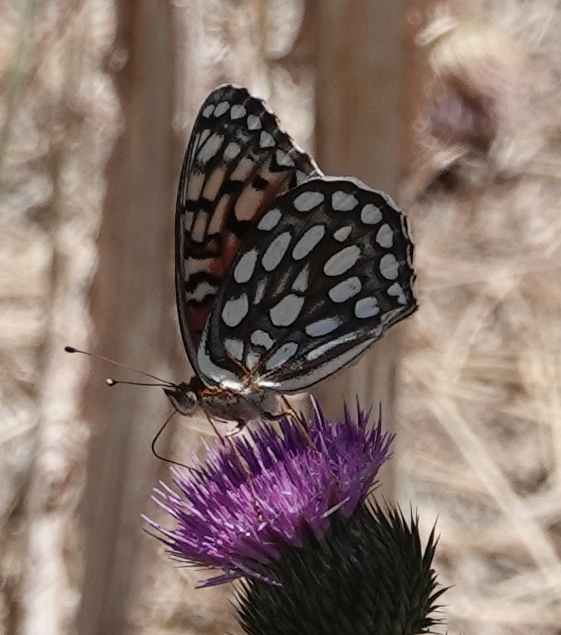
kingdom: Animalia
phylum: Arthropoda
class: Insecta
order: Lepidoptera
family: Nymphalidae
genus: Speyeria
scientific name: Speyeria edwardsii
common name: Edwards' fritillary
